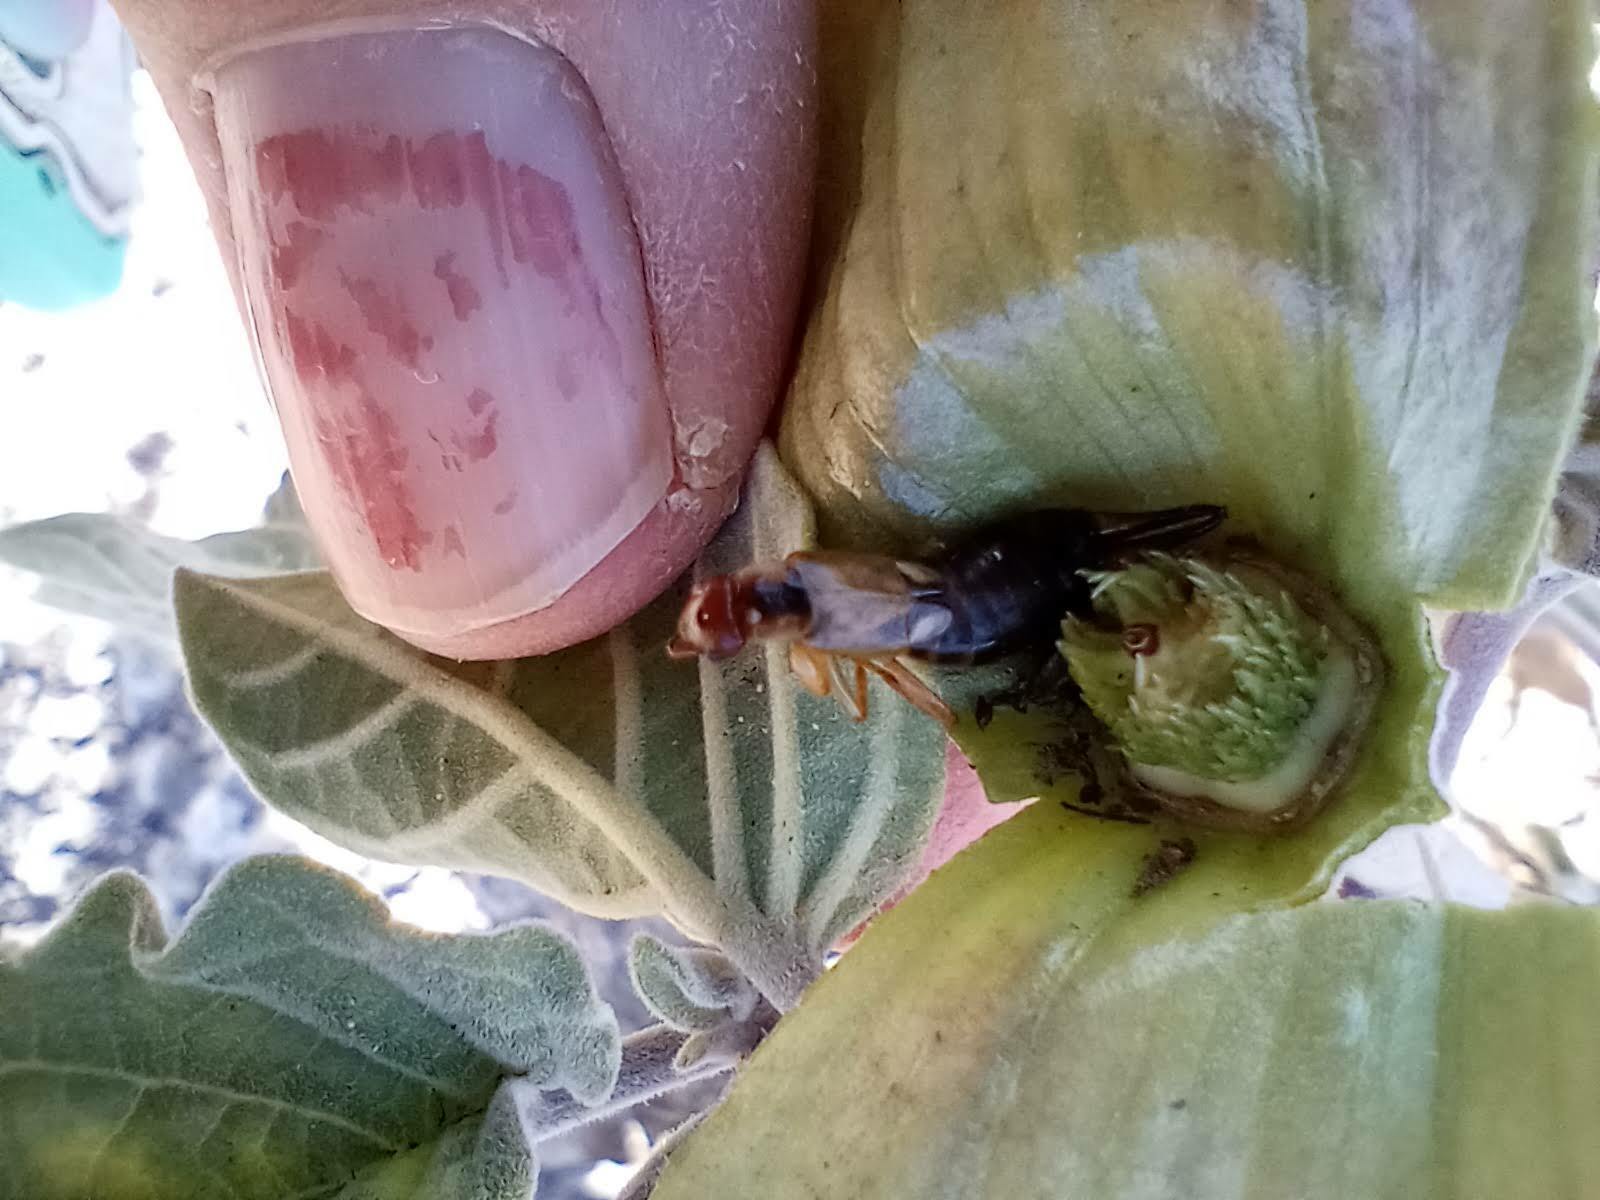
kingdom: Animalia
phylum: Arthropoda
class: Insecta
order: Dermaptera
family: Forficulidae
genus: Forficula
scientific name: Forficula
